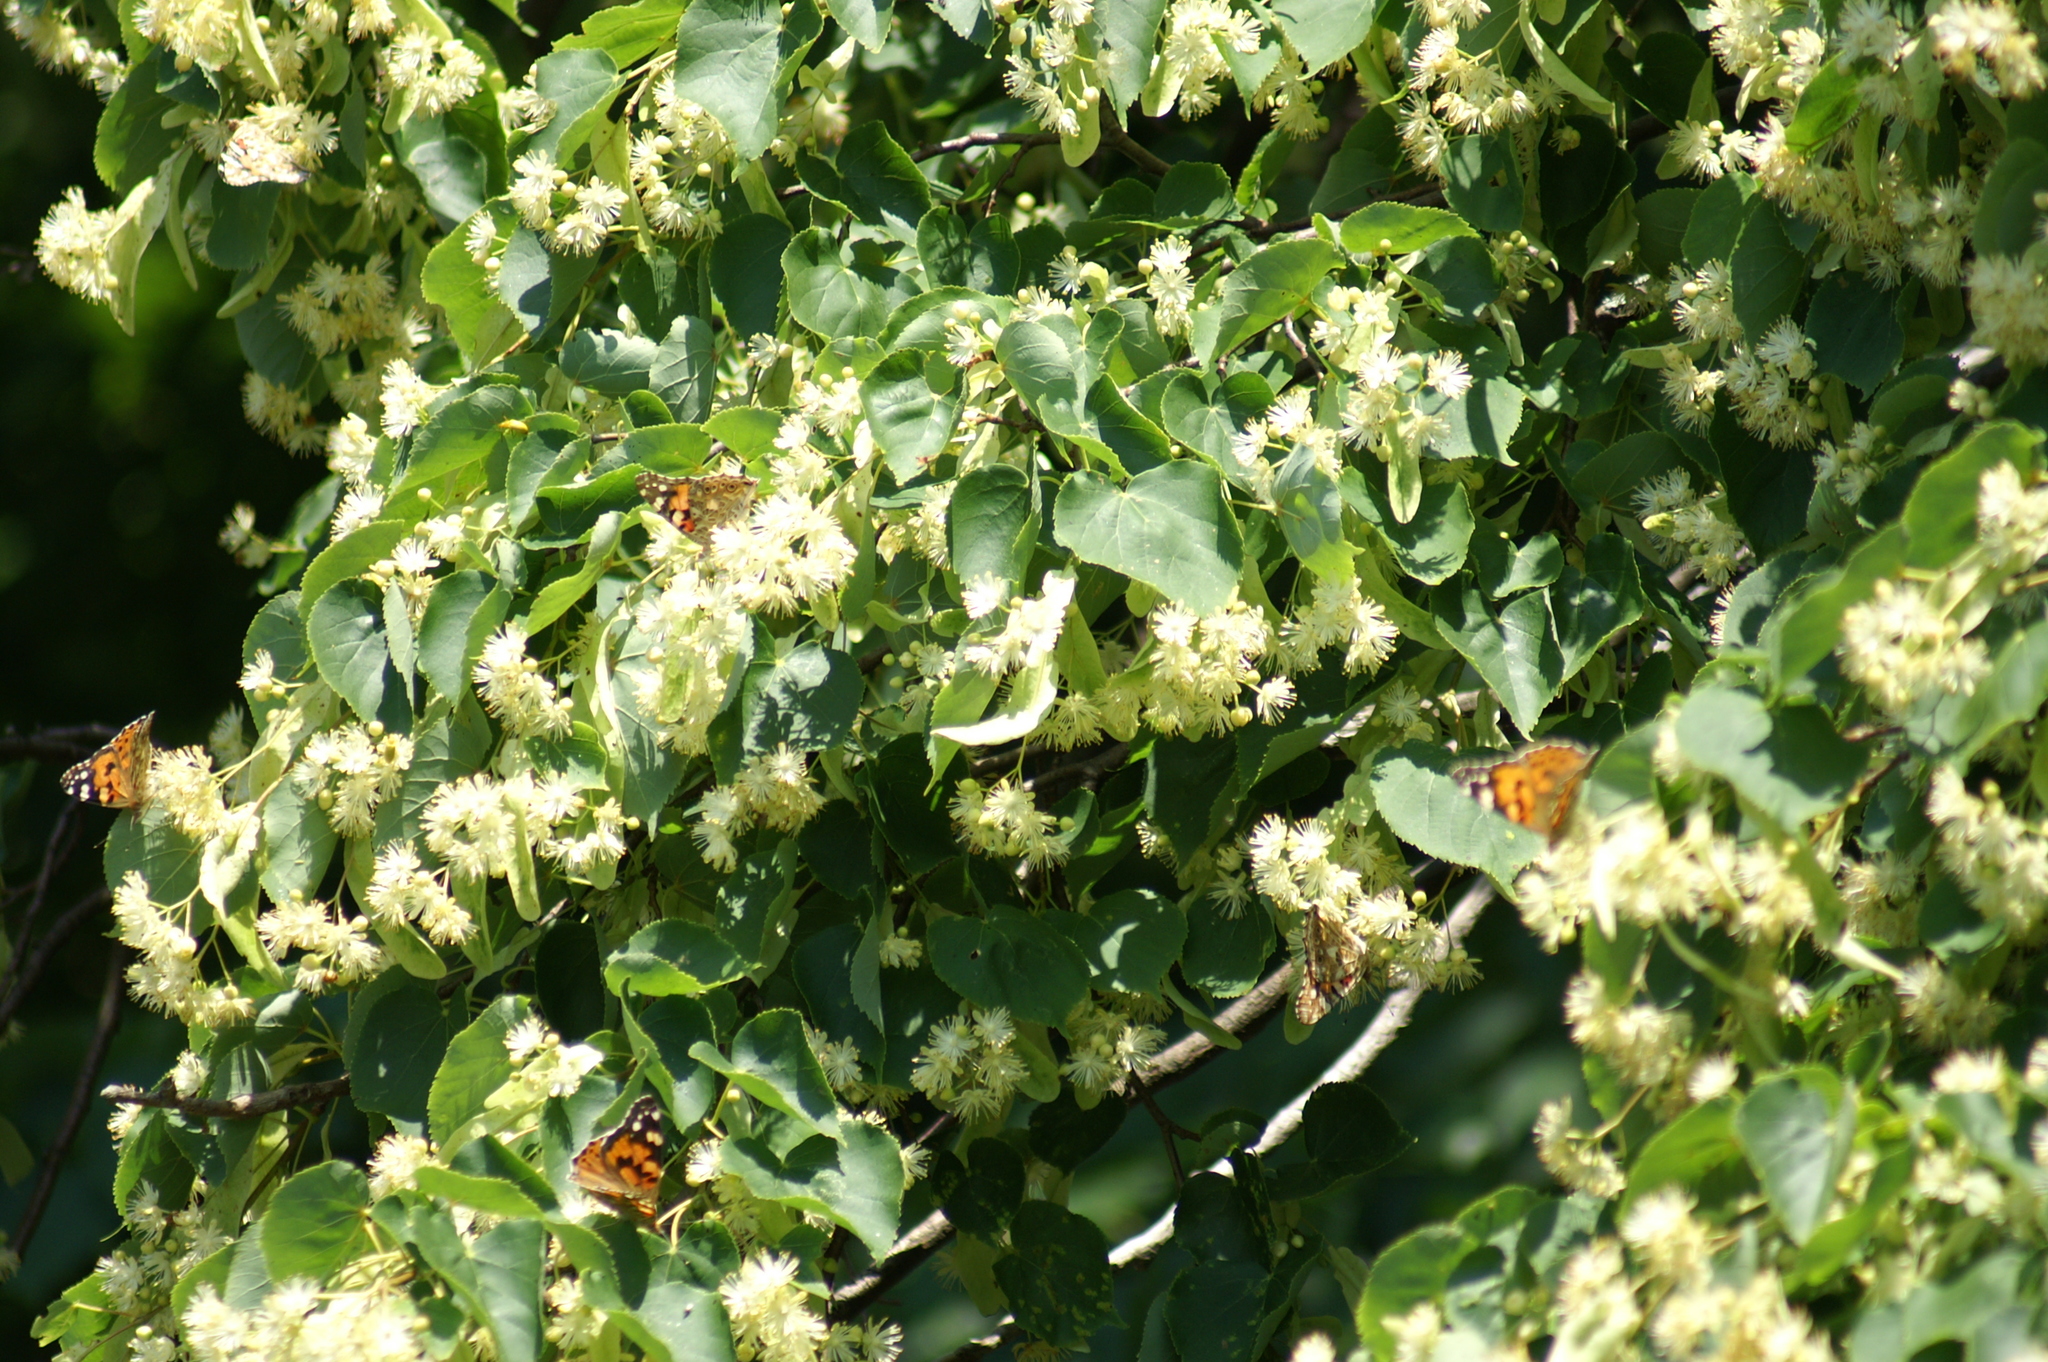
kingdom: Animalia
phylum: Arthropoda
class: Insecta
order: Lepidoptera
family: Nymphalidae
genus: Vanessa
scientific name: Vanessa cardui
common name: Painted lady
